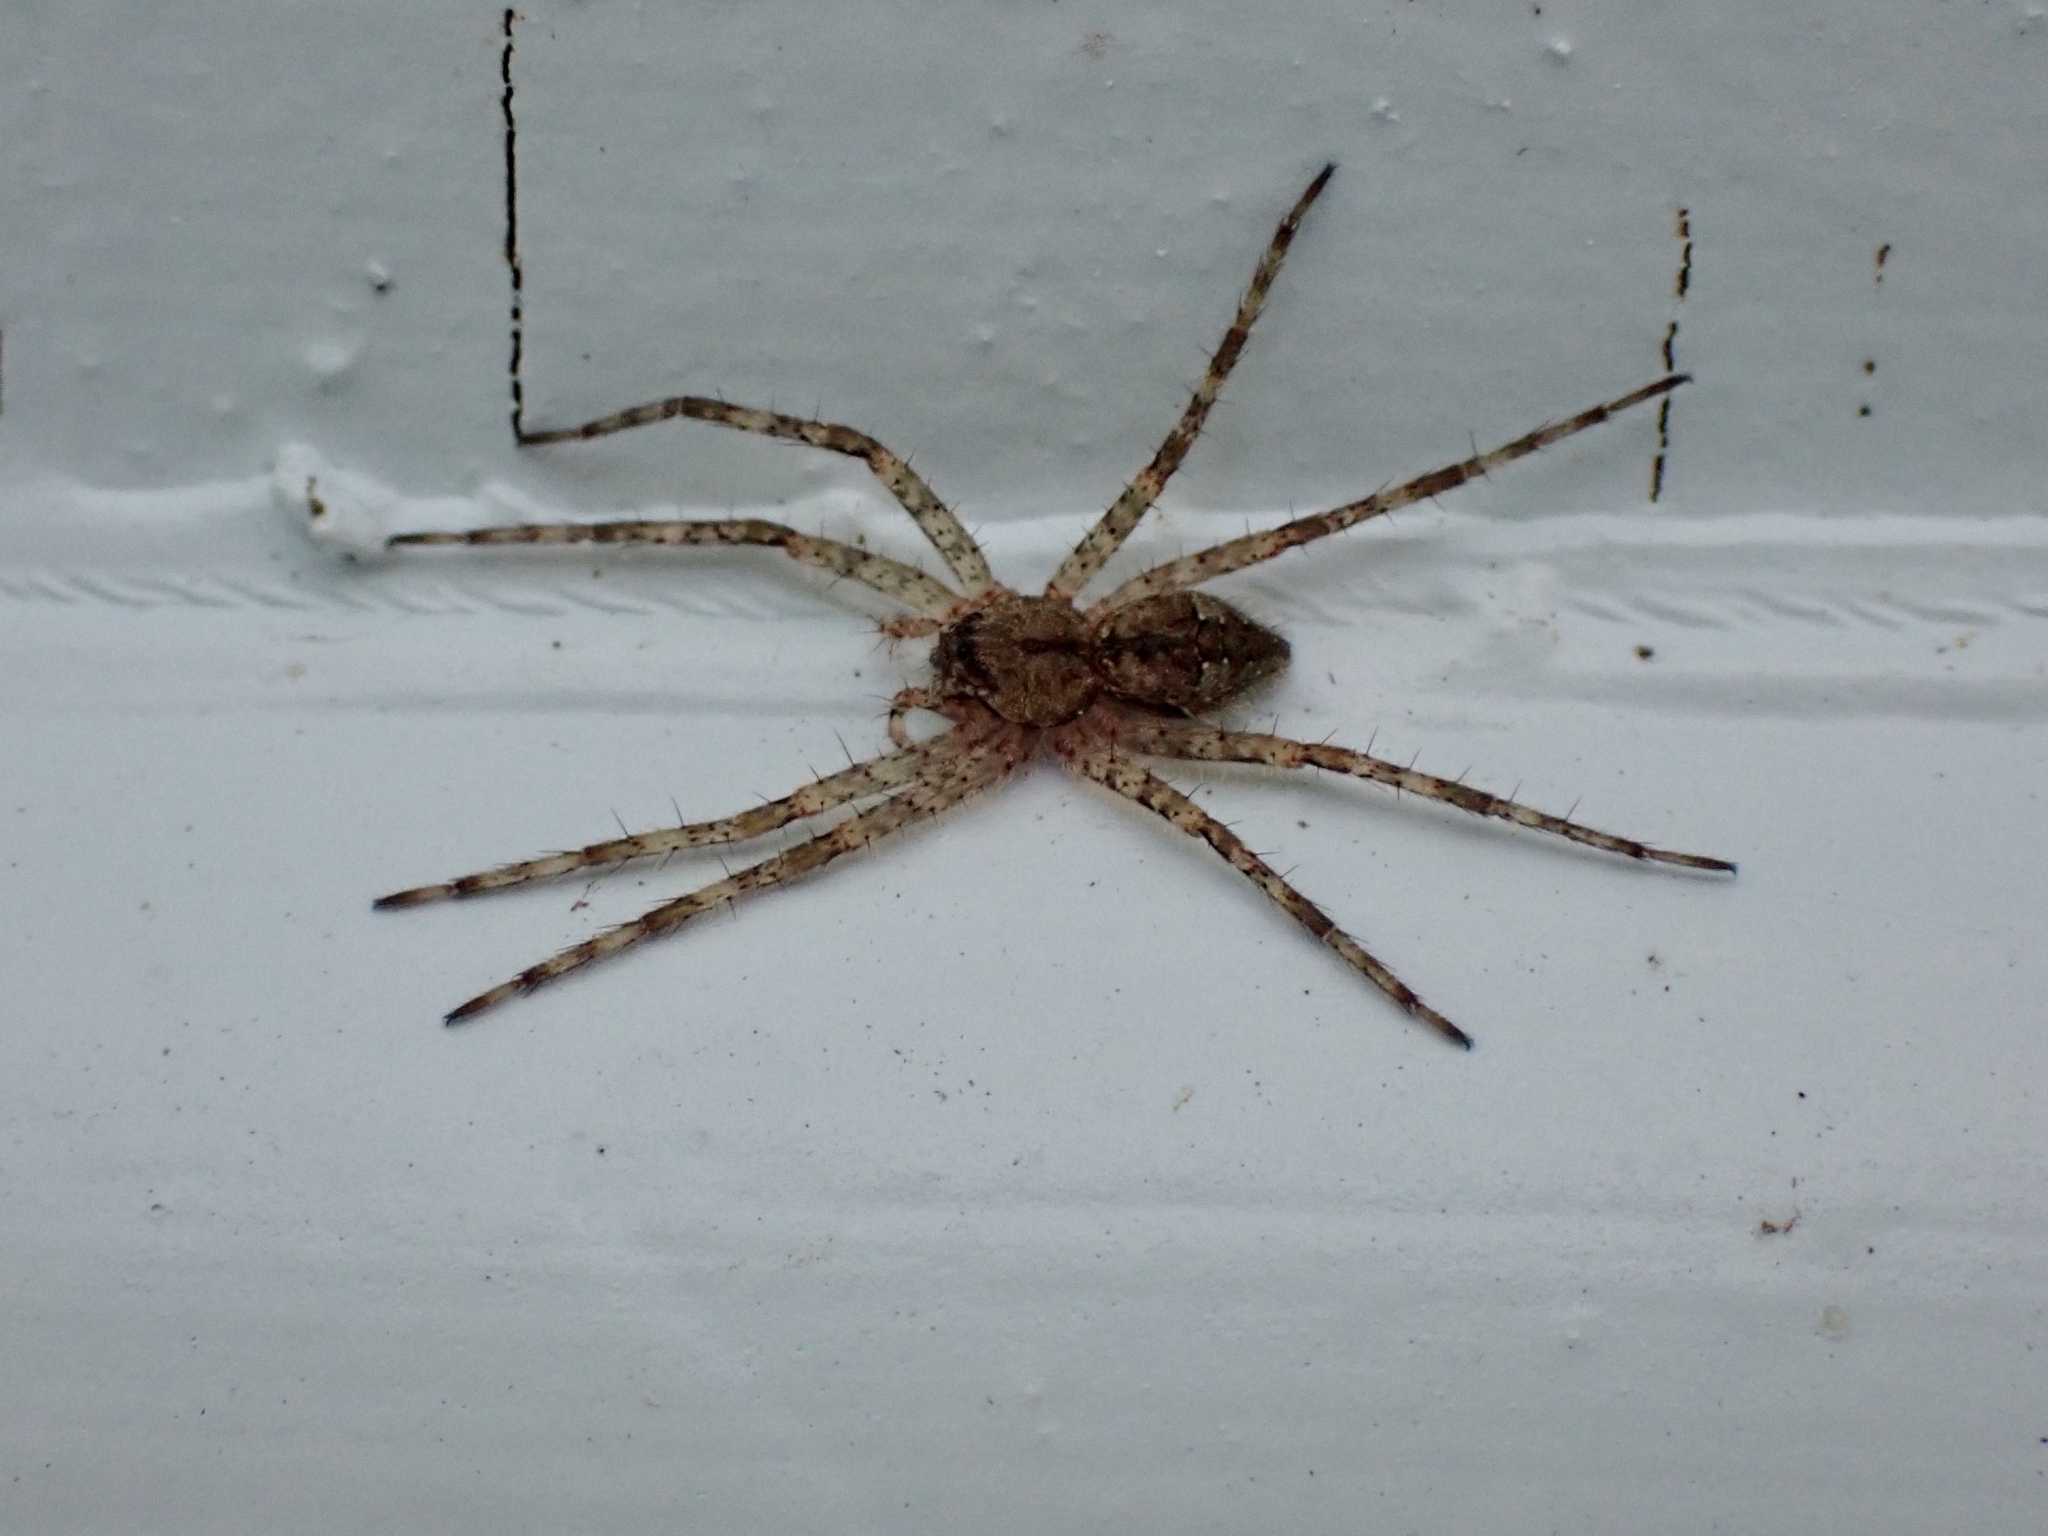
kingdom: Animalia
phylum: Arthropoda
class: Arachnida
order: Araneae
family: Pisauridae
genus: Dolomedes
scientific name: Dolomedes albineus
